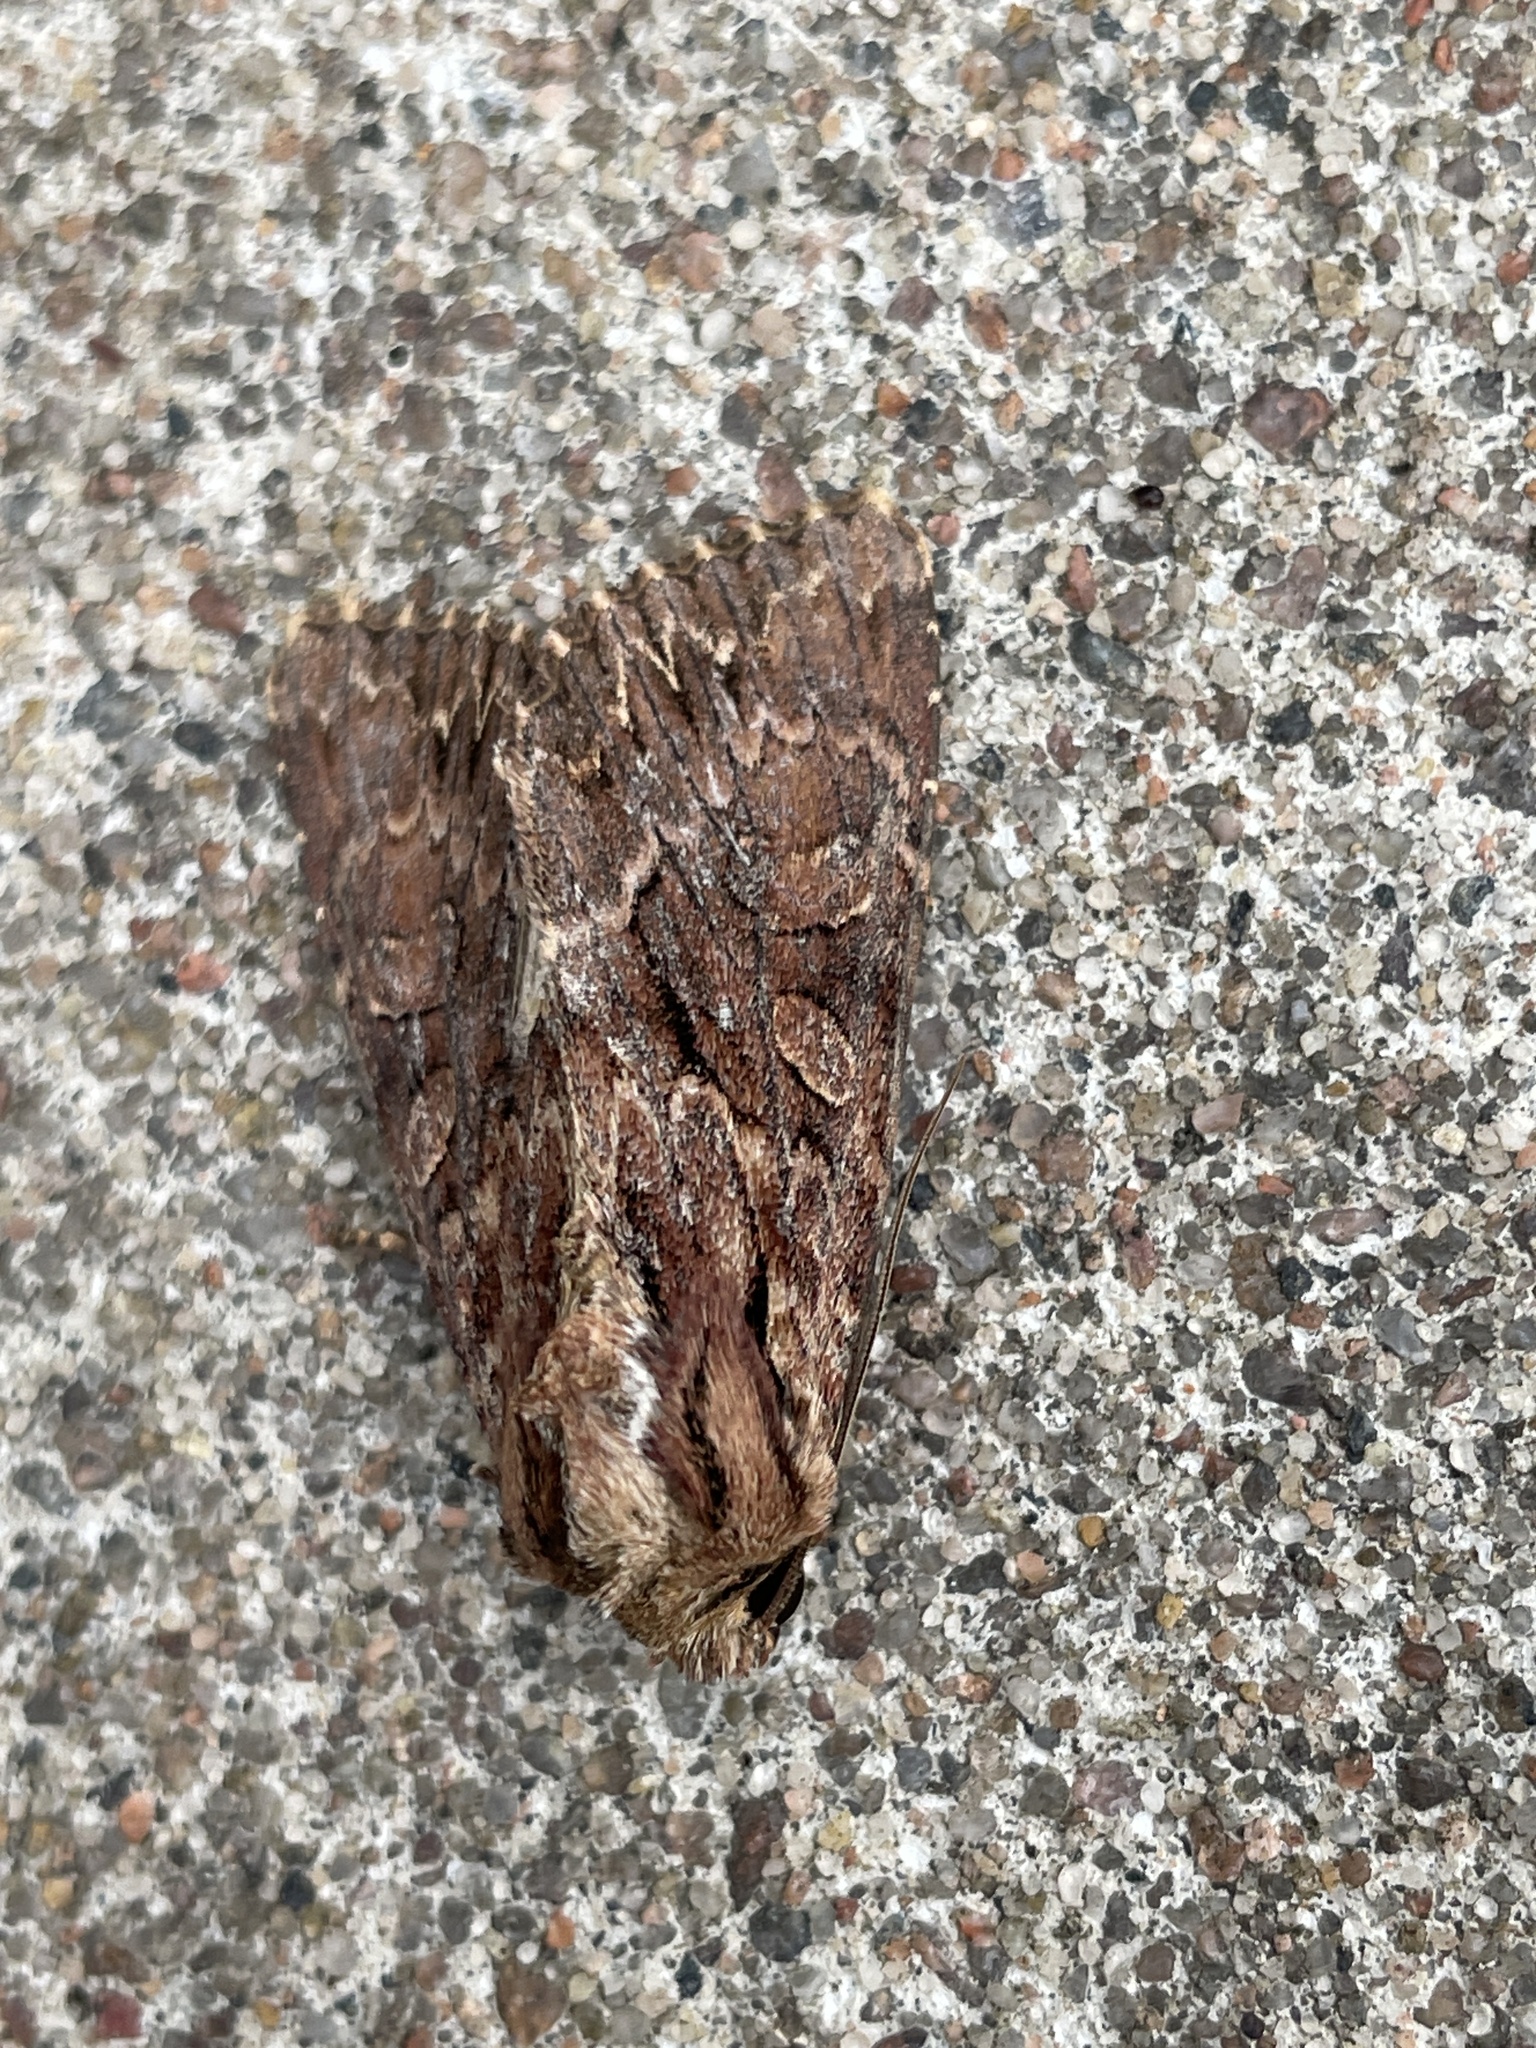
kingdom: Animalia
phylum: Arthropoda
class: Insecta
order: Lepidoptera
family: Noctuidae
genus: Apamea
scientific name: Apamea monoglypha
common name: Dark arches
